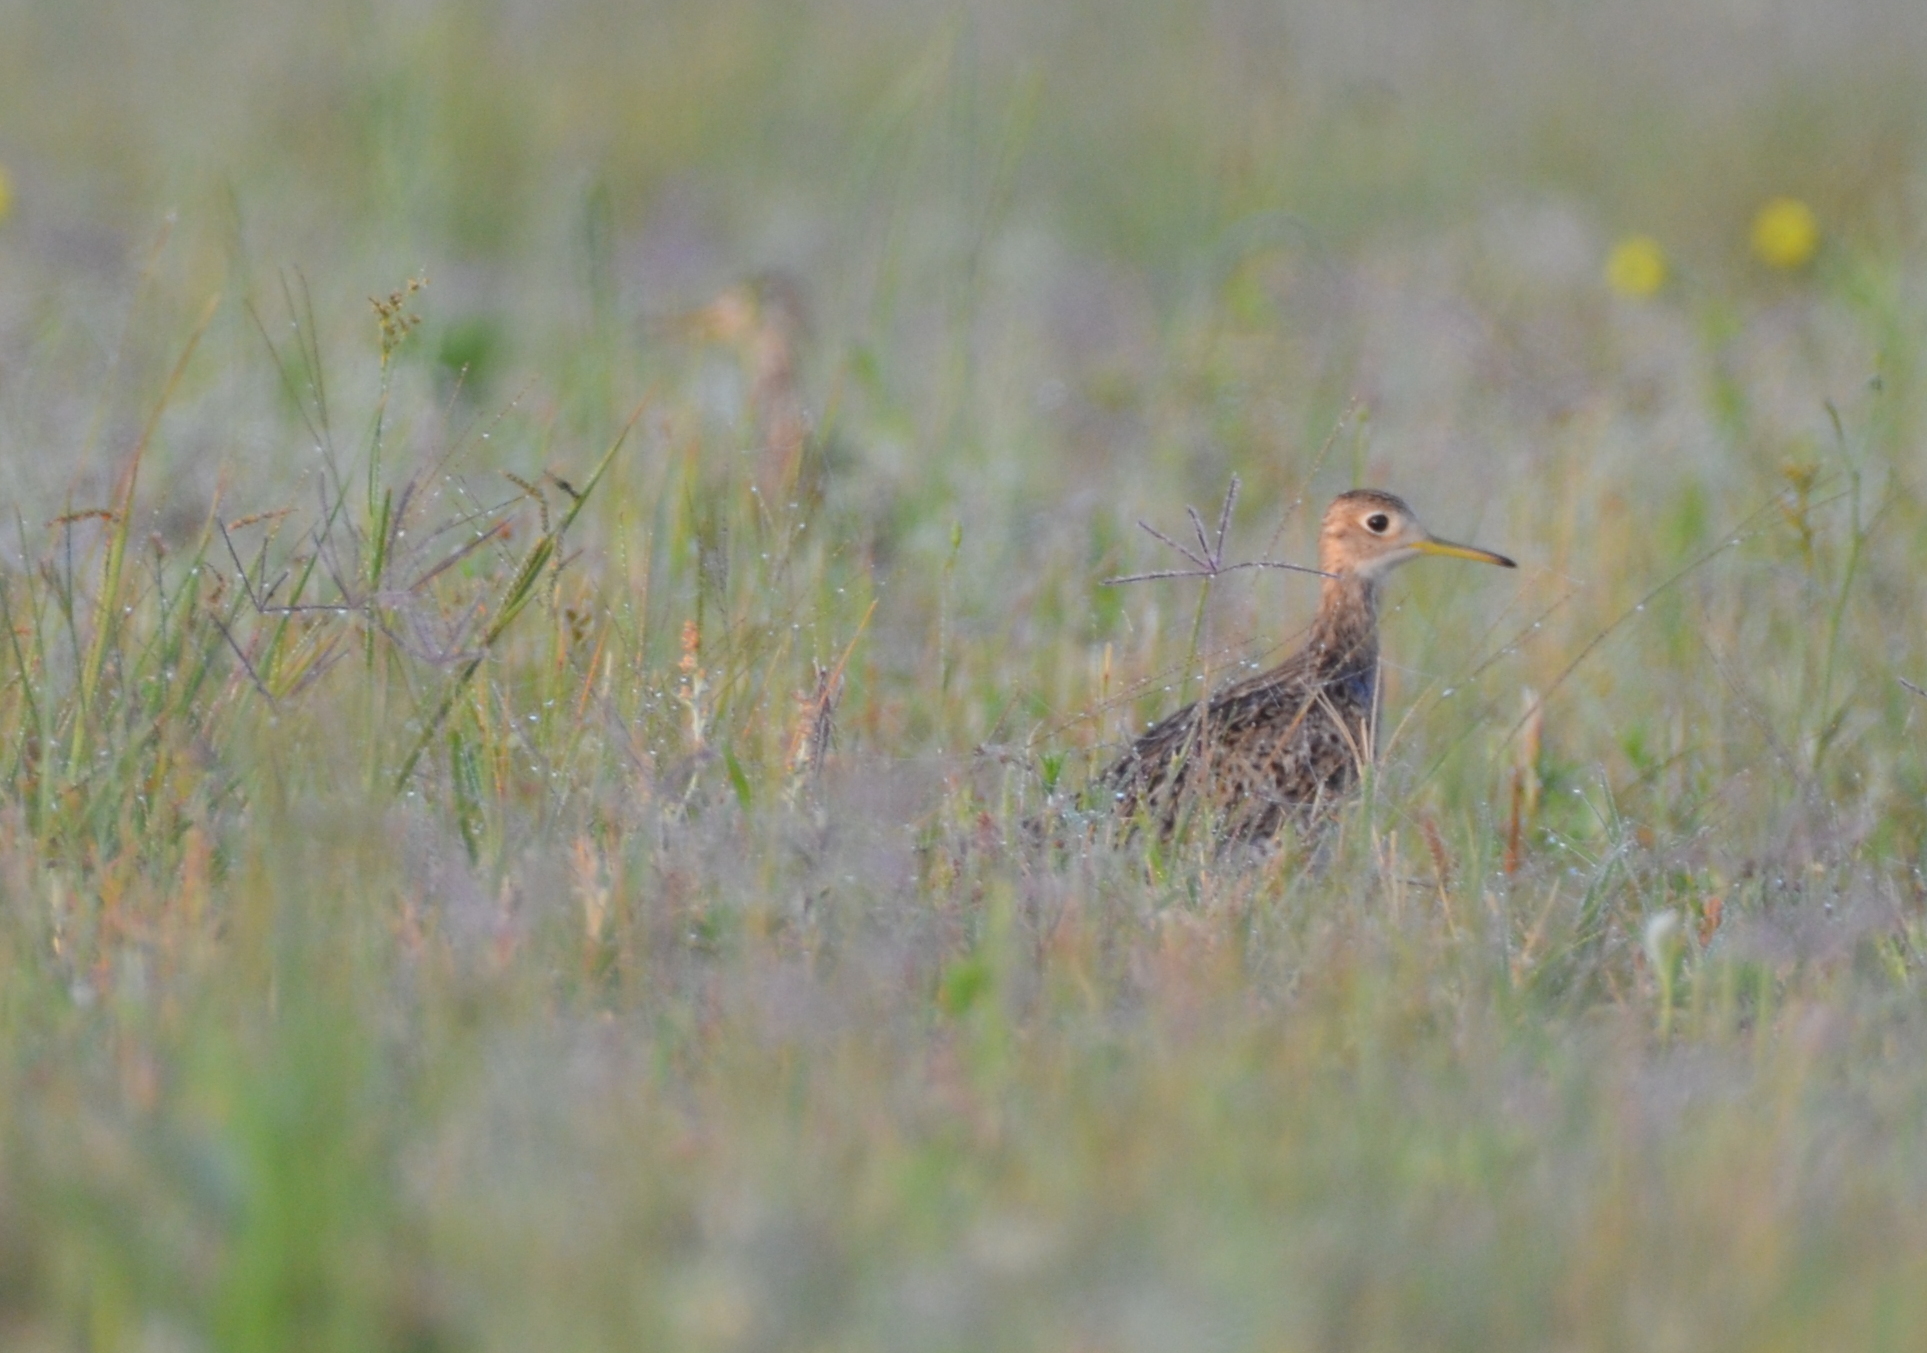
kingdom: Animalia
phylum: Chordata
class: Aves
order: Charadriiformes
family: Scolopacidae
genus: Bartramia
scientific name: Bartramia longicauda
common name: Upland sandpiper
